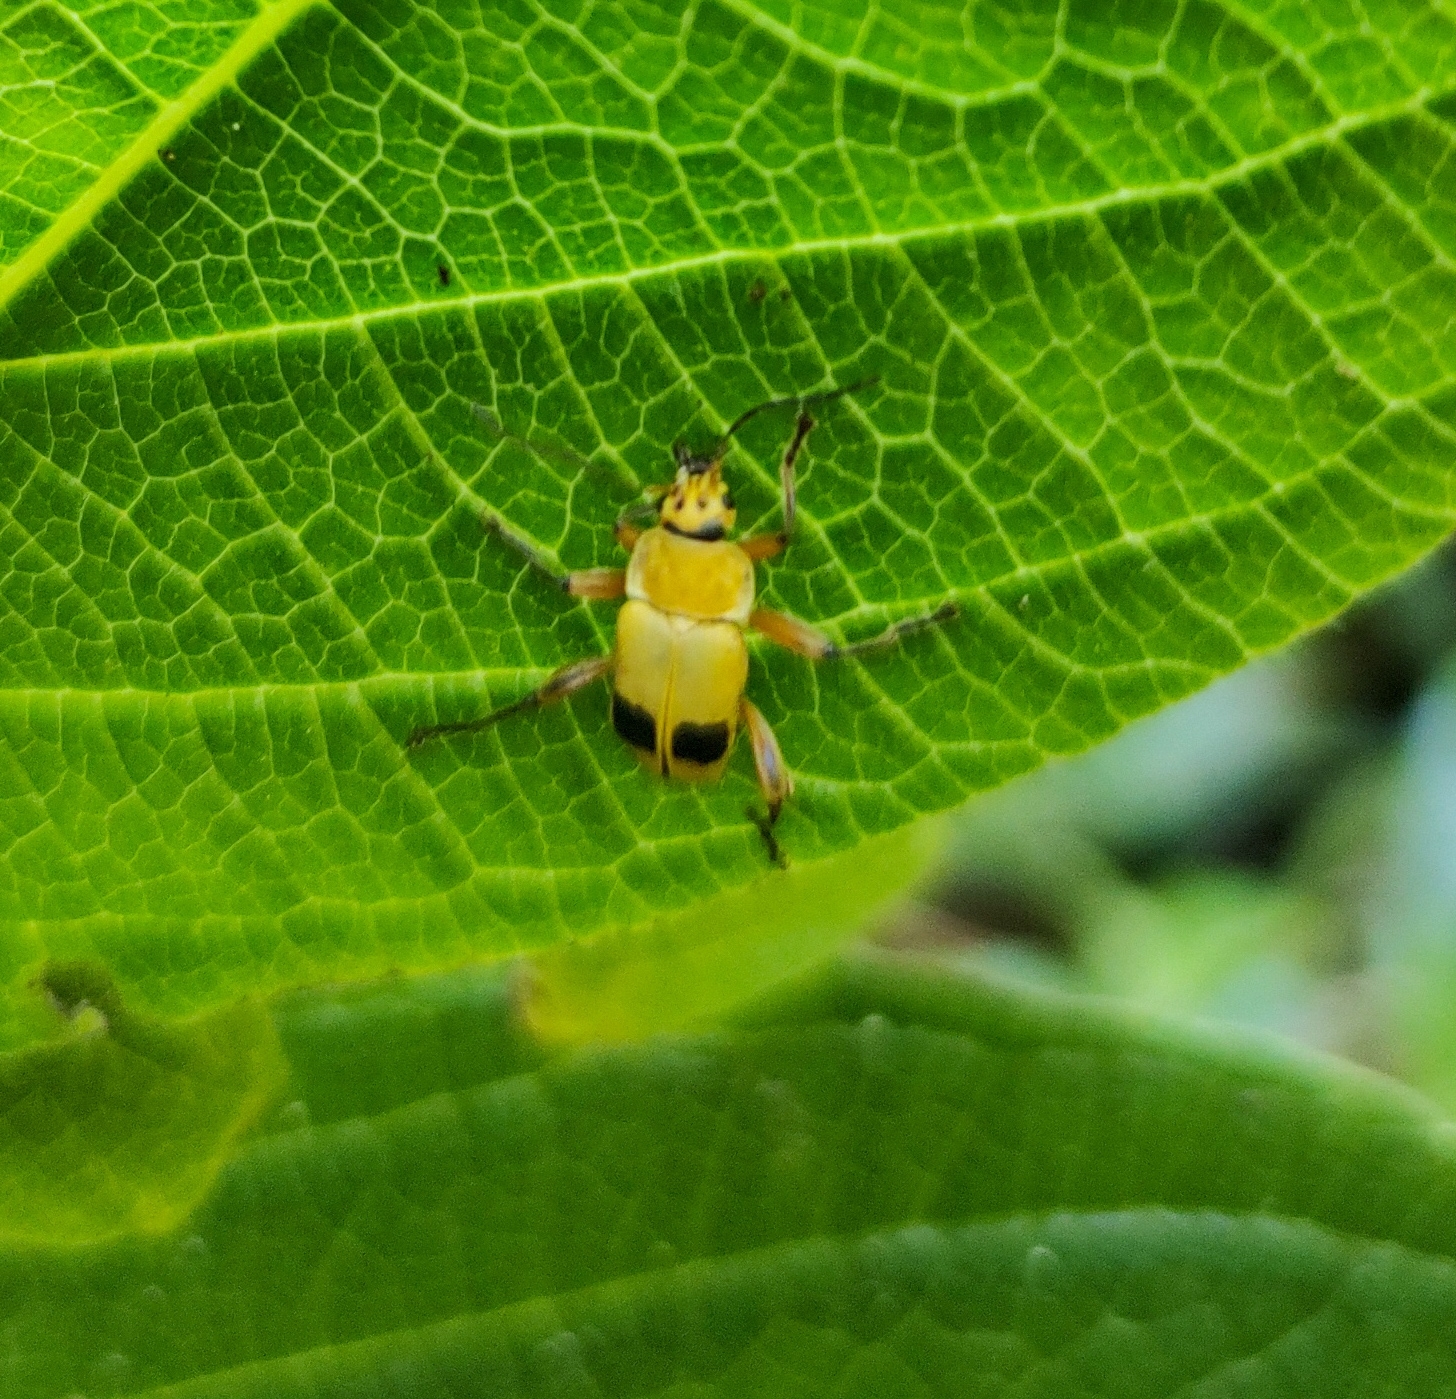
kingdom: Animalia
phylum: Arthropoda
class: Insecta
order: Coleoptera
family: Cantharidae
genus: Chauliognathus
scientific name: Chauliognathus
